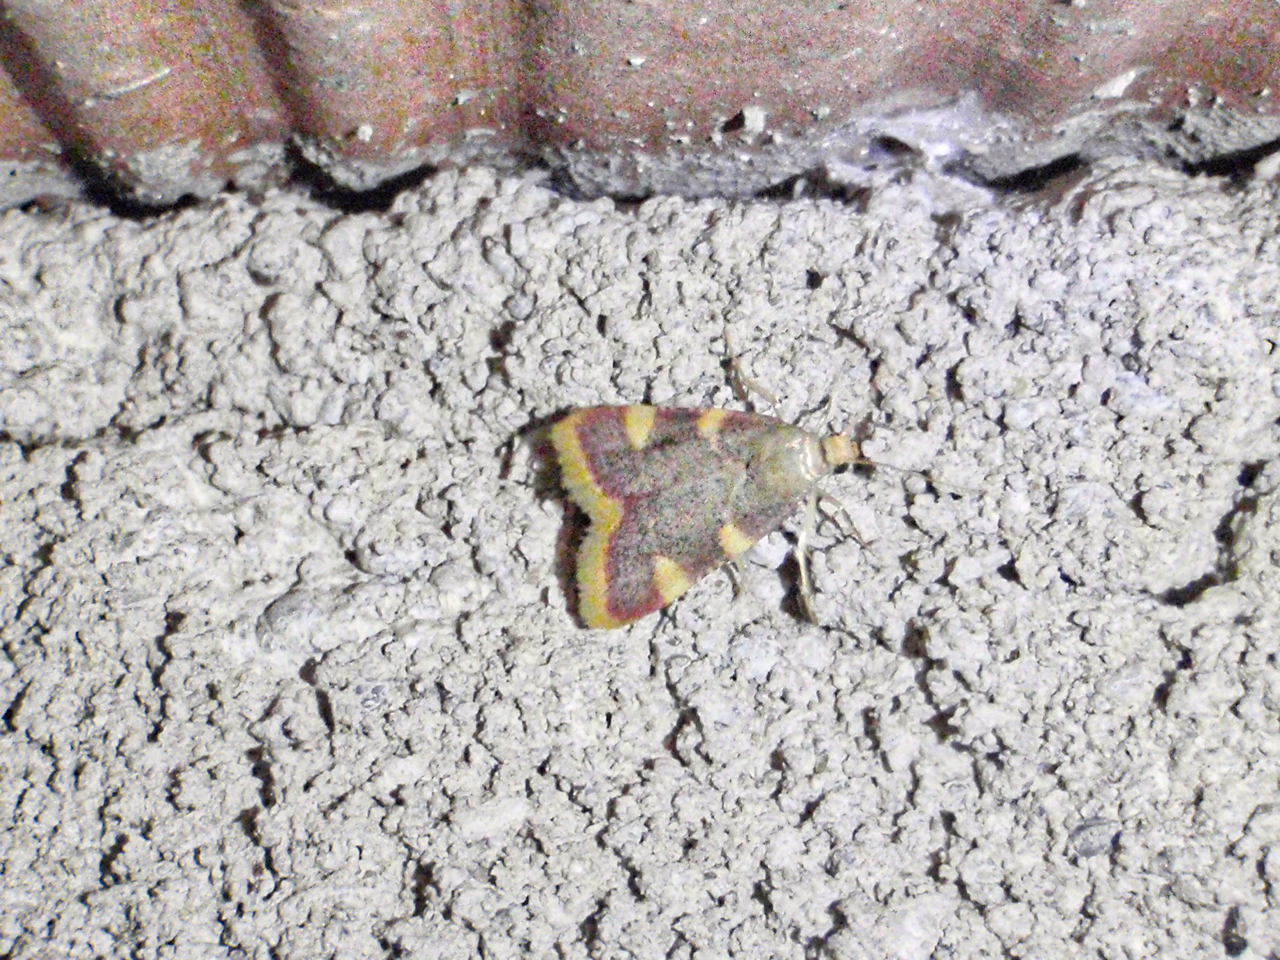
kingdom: Animalia
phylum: Arthropoda
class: Insecta
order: Lepidoptera
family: Pyralidae
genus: Hypsopygia
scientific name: Hypsopygia costalis
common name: Gold triangle
